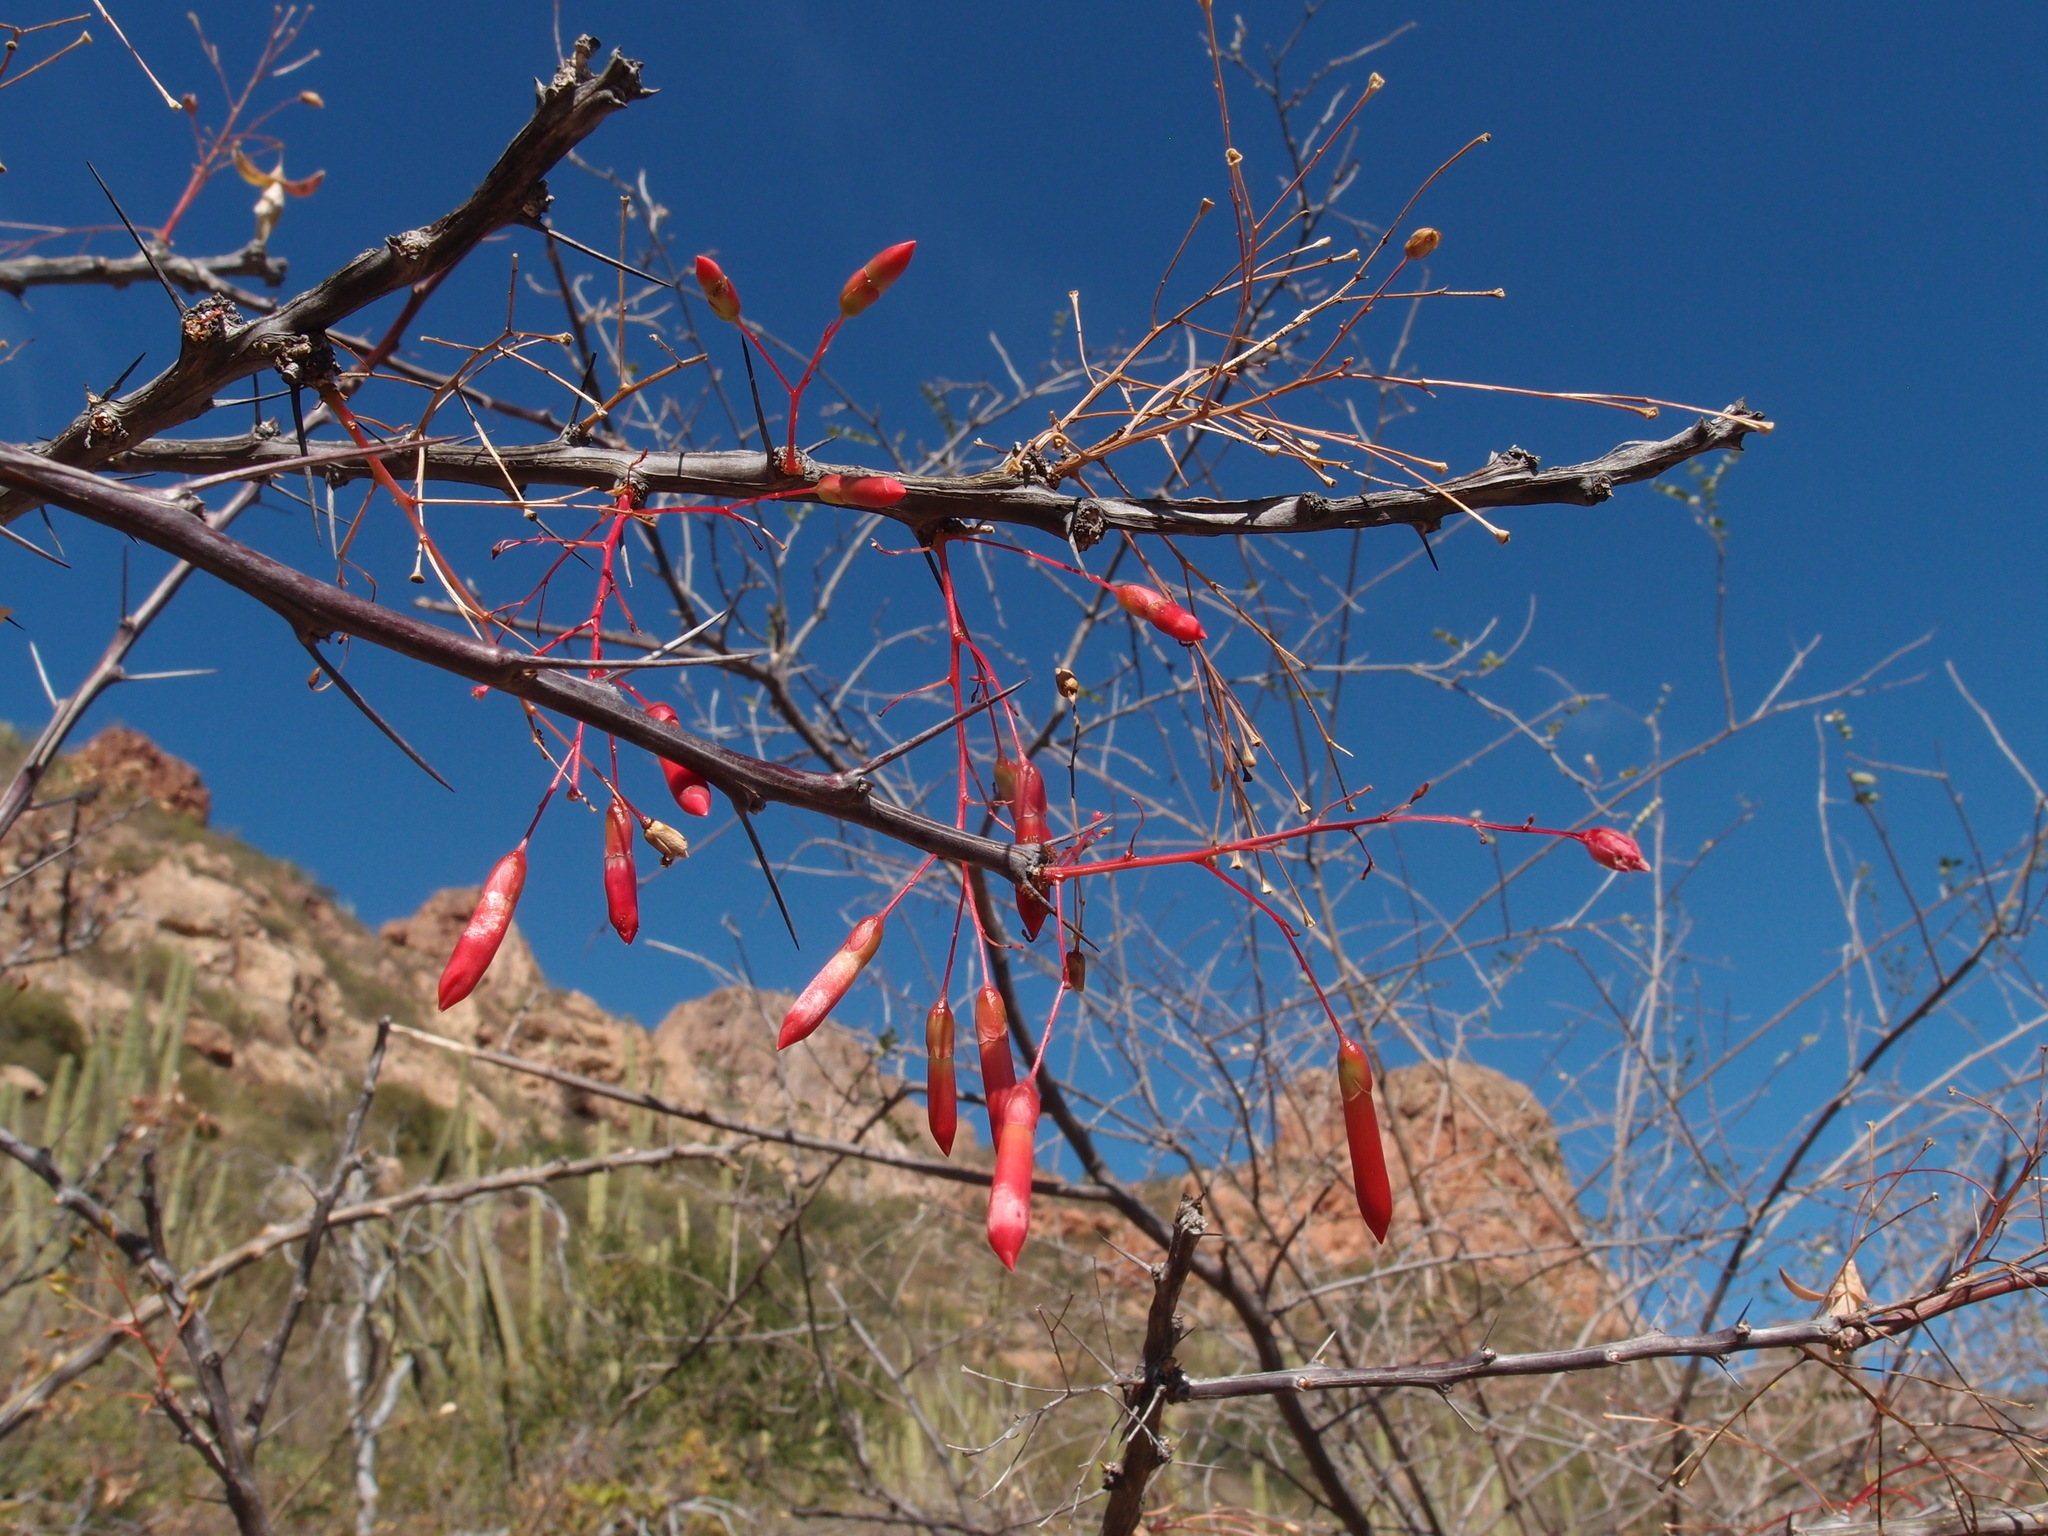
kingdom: Plantae
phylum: Tracheophyta
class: Magnoliopsida
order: Ericales
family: Fouquieriaceae
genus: Fouquieria
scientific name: Fouquieria macdougalii
